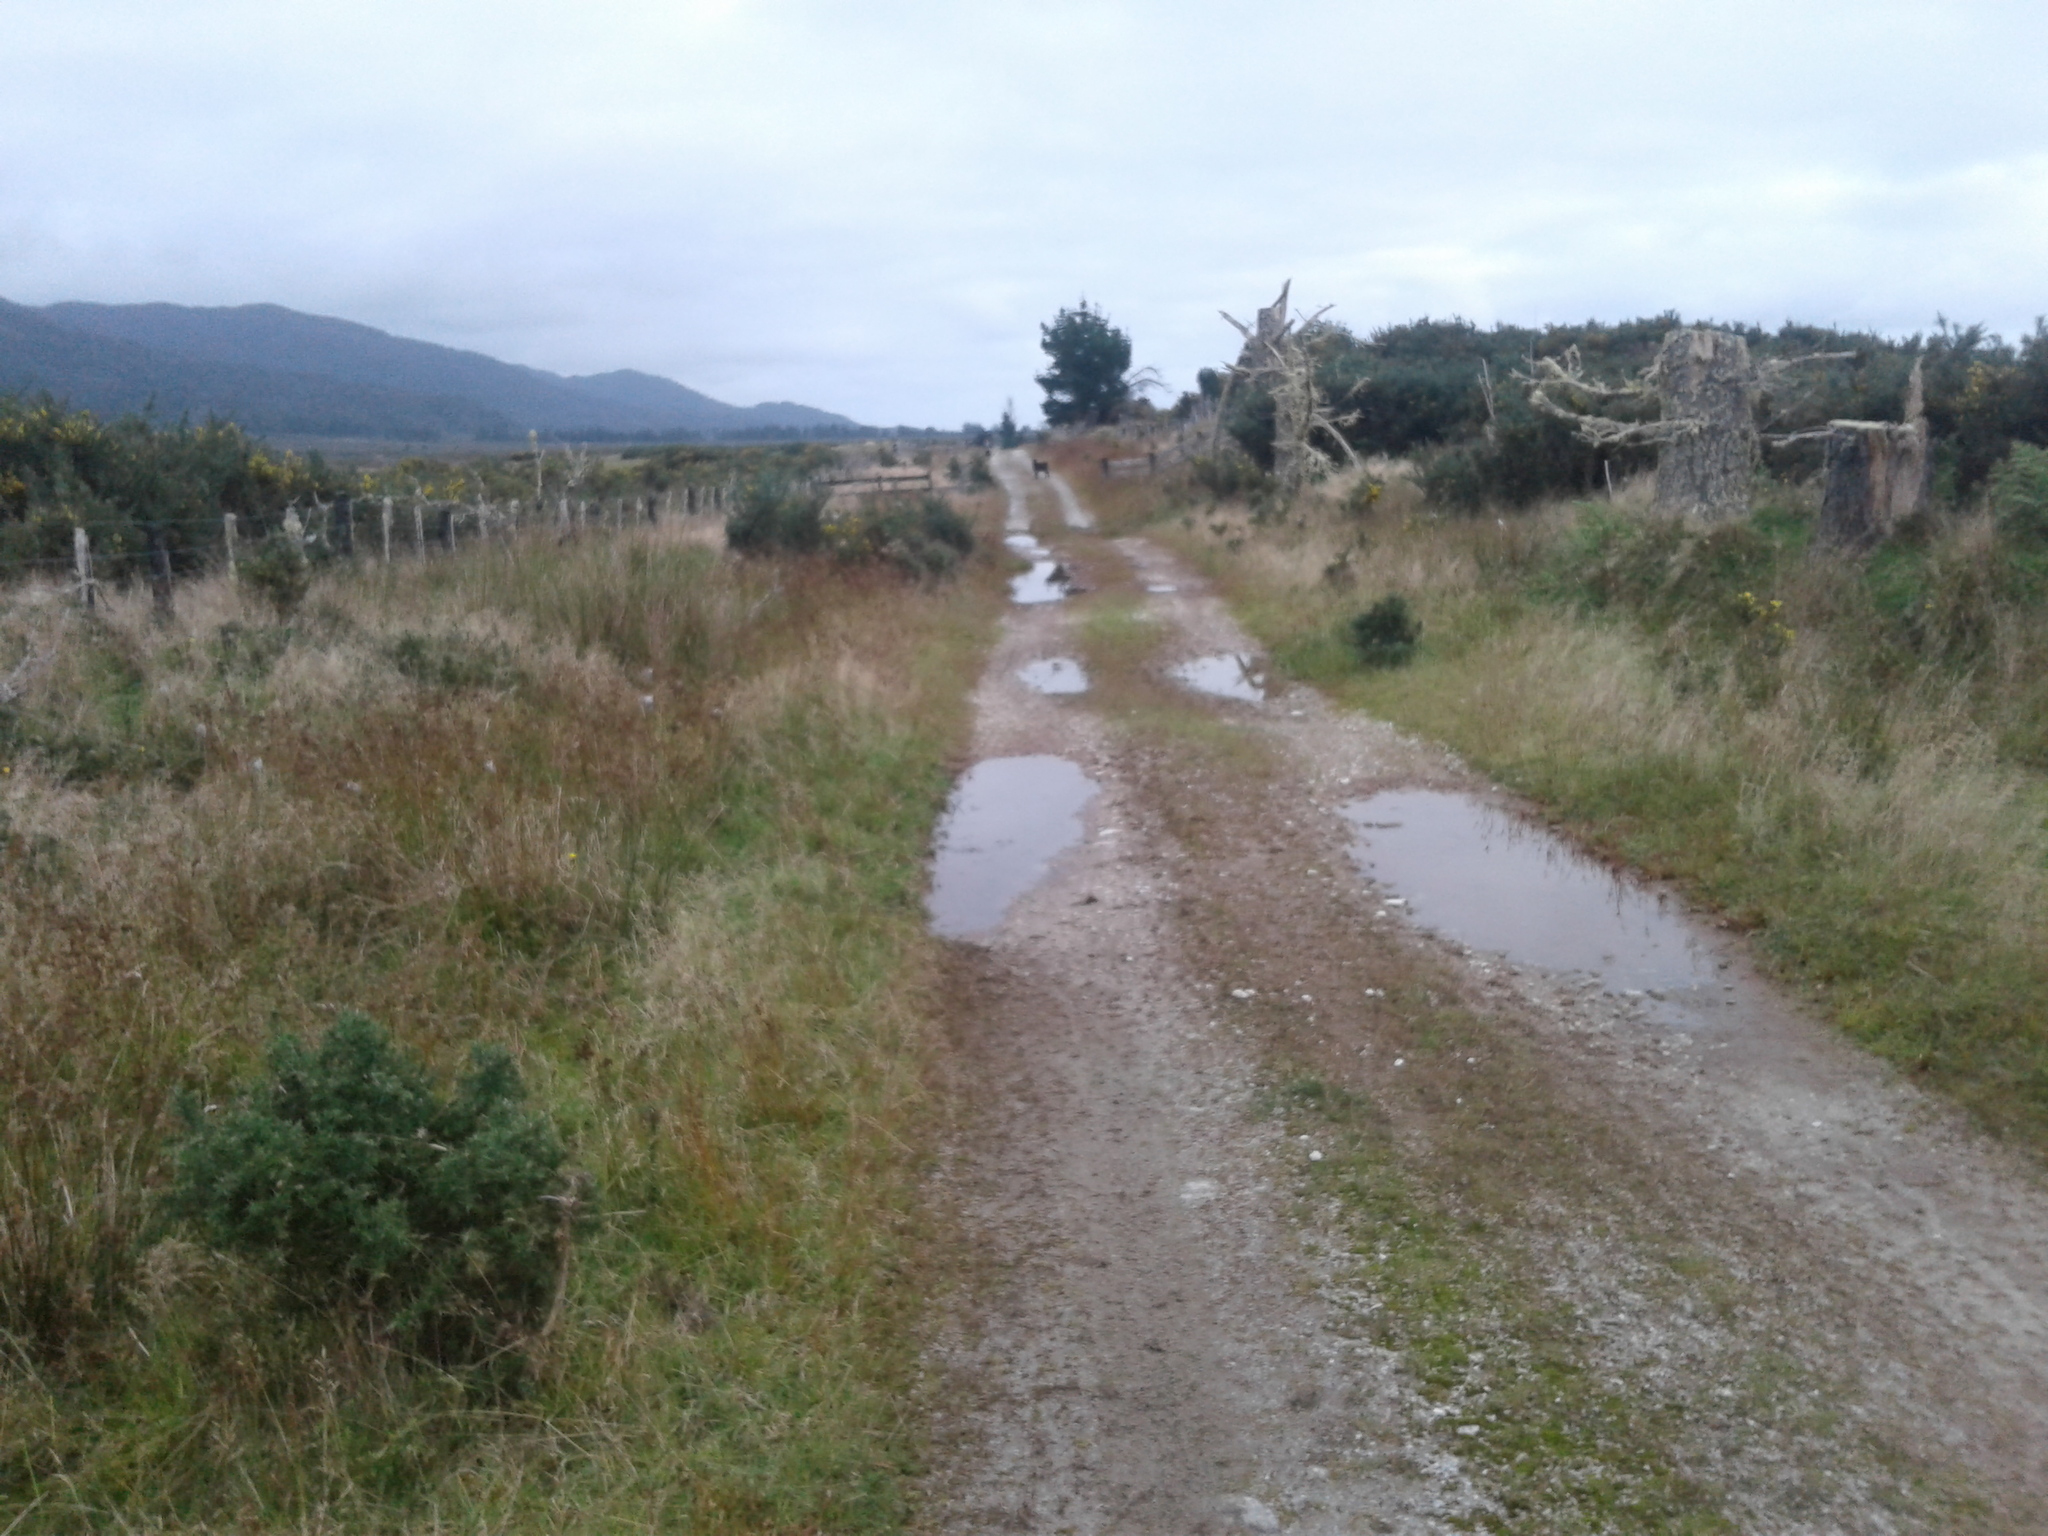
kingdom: Animalia
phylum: Chordata
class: Mammalia
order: Artiodactyla
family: Bovidae
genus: Capra
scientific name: Capra hircus
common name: Domestic goat
